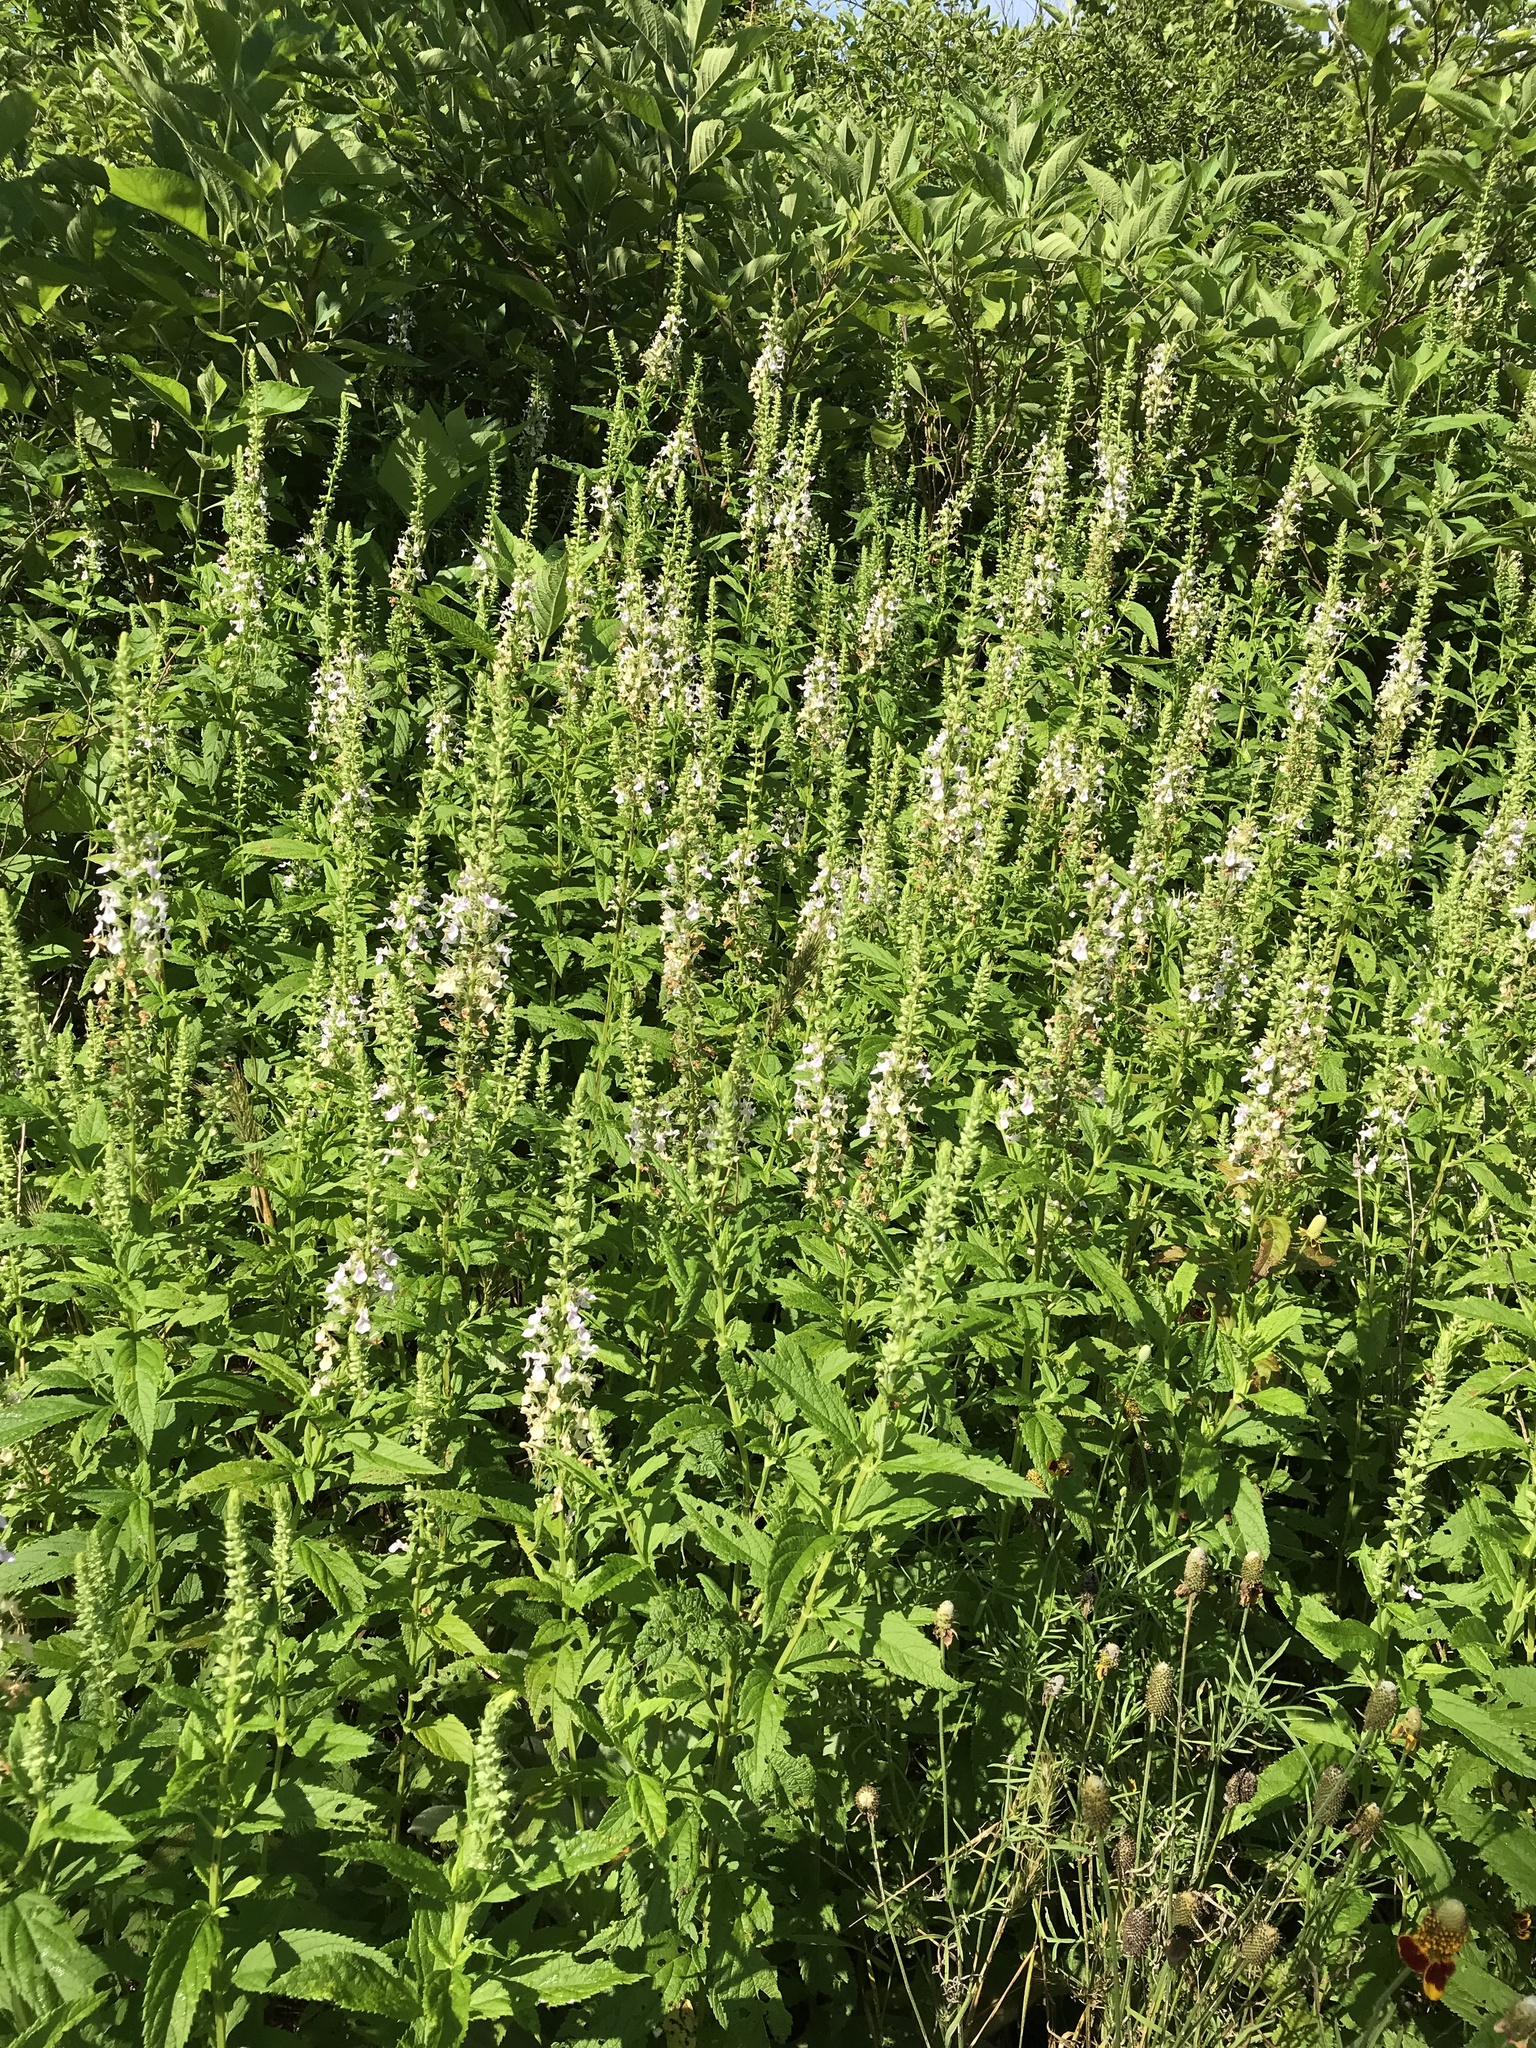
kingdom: Plantae
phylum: Tracheophyta
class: Magnoliopsida
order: Lamiales
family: Lamiaceae
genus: Teucrium
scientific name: Teucrium canadense
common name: American germander
